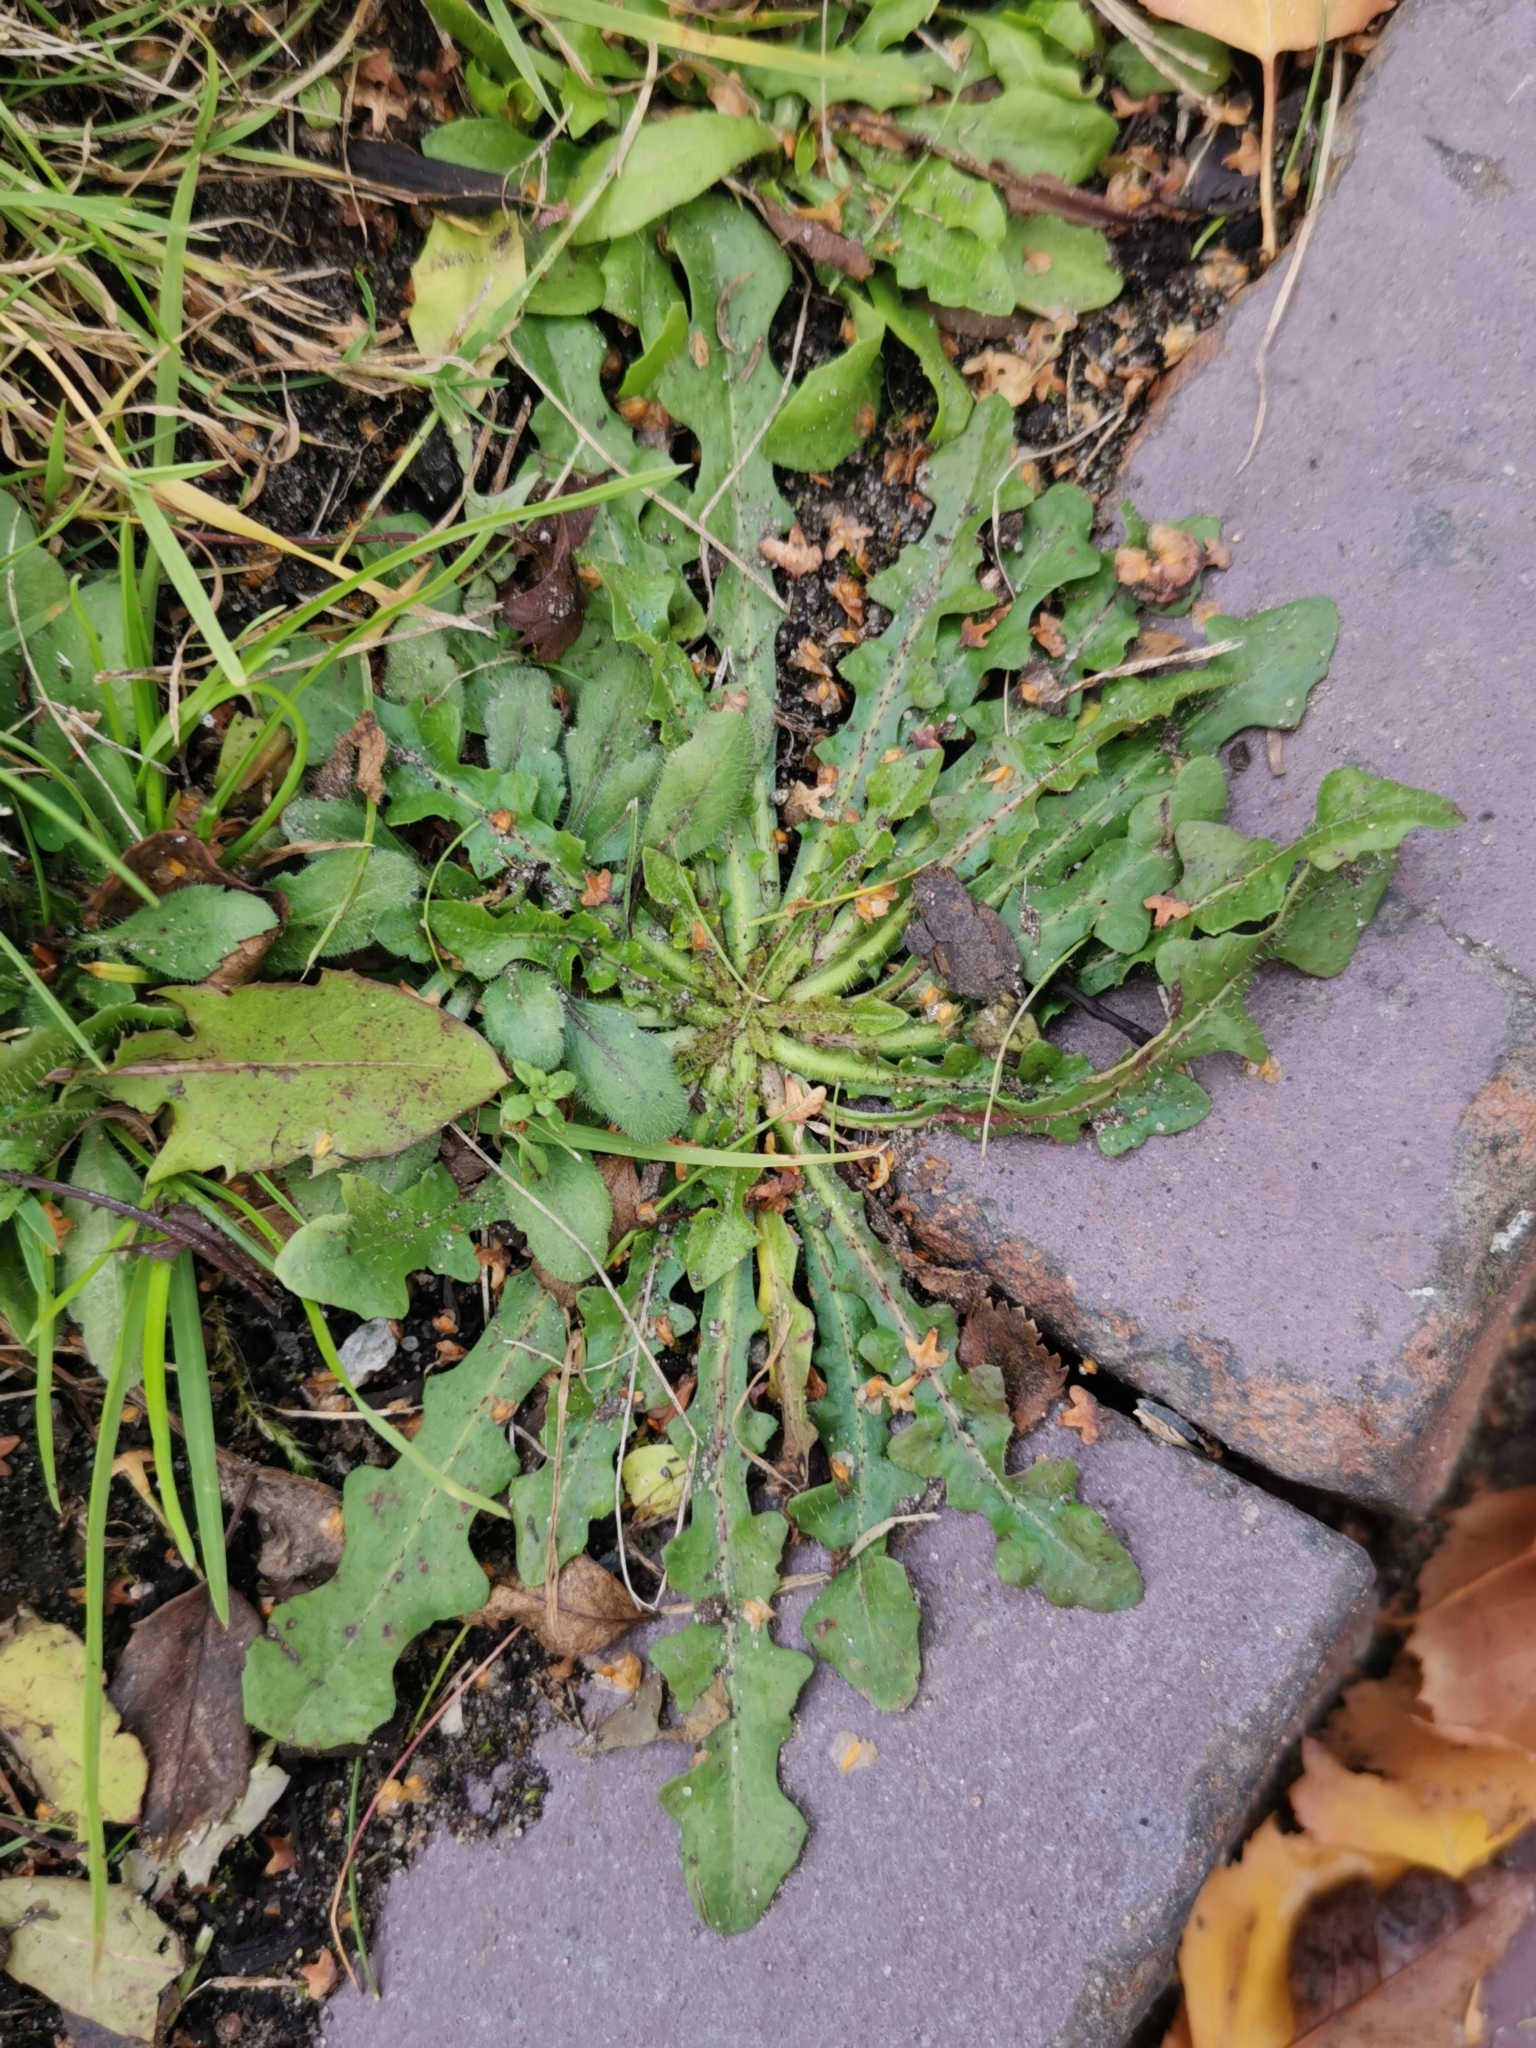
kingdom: Plantae
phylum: Tracheophyta
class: Magnoliopsida
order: Asterales
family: Asteraceae
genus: Hypochaeris
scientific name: Hypochaeris radicata
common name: Flatweed
